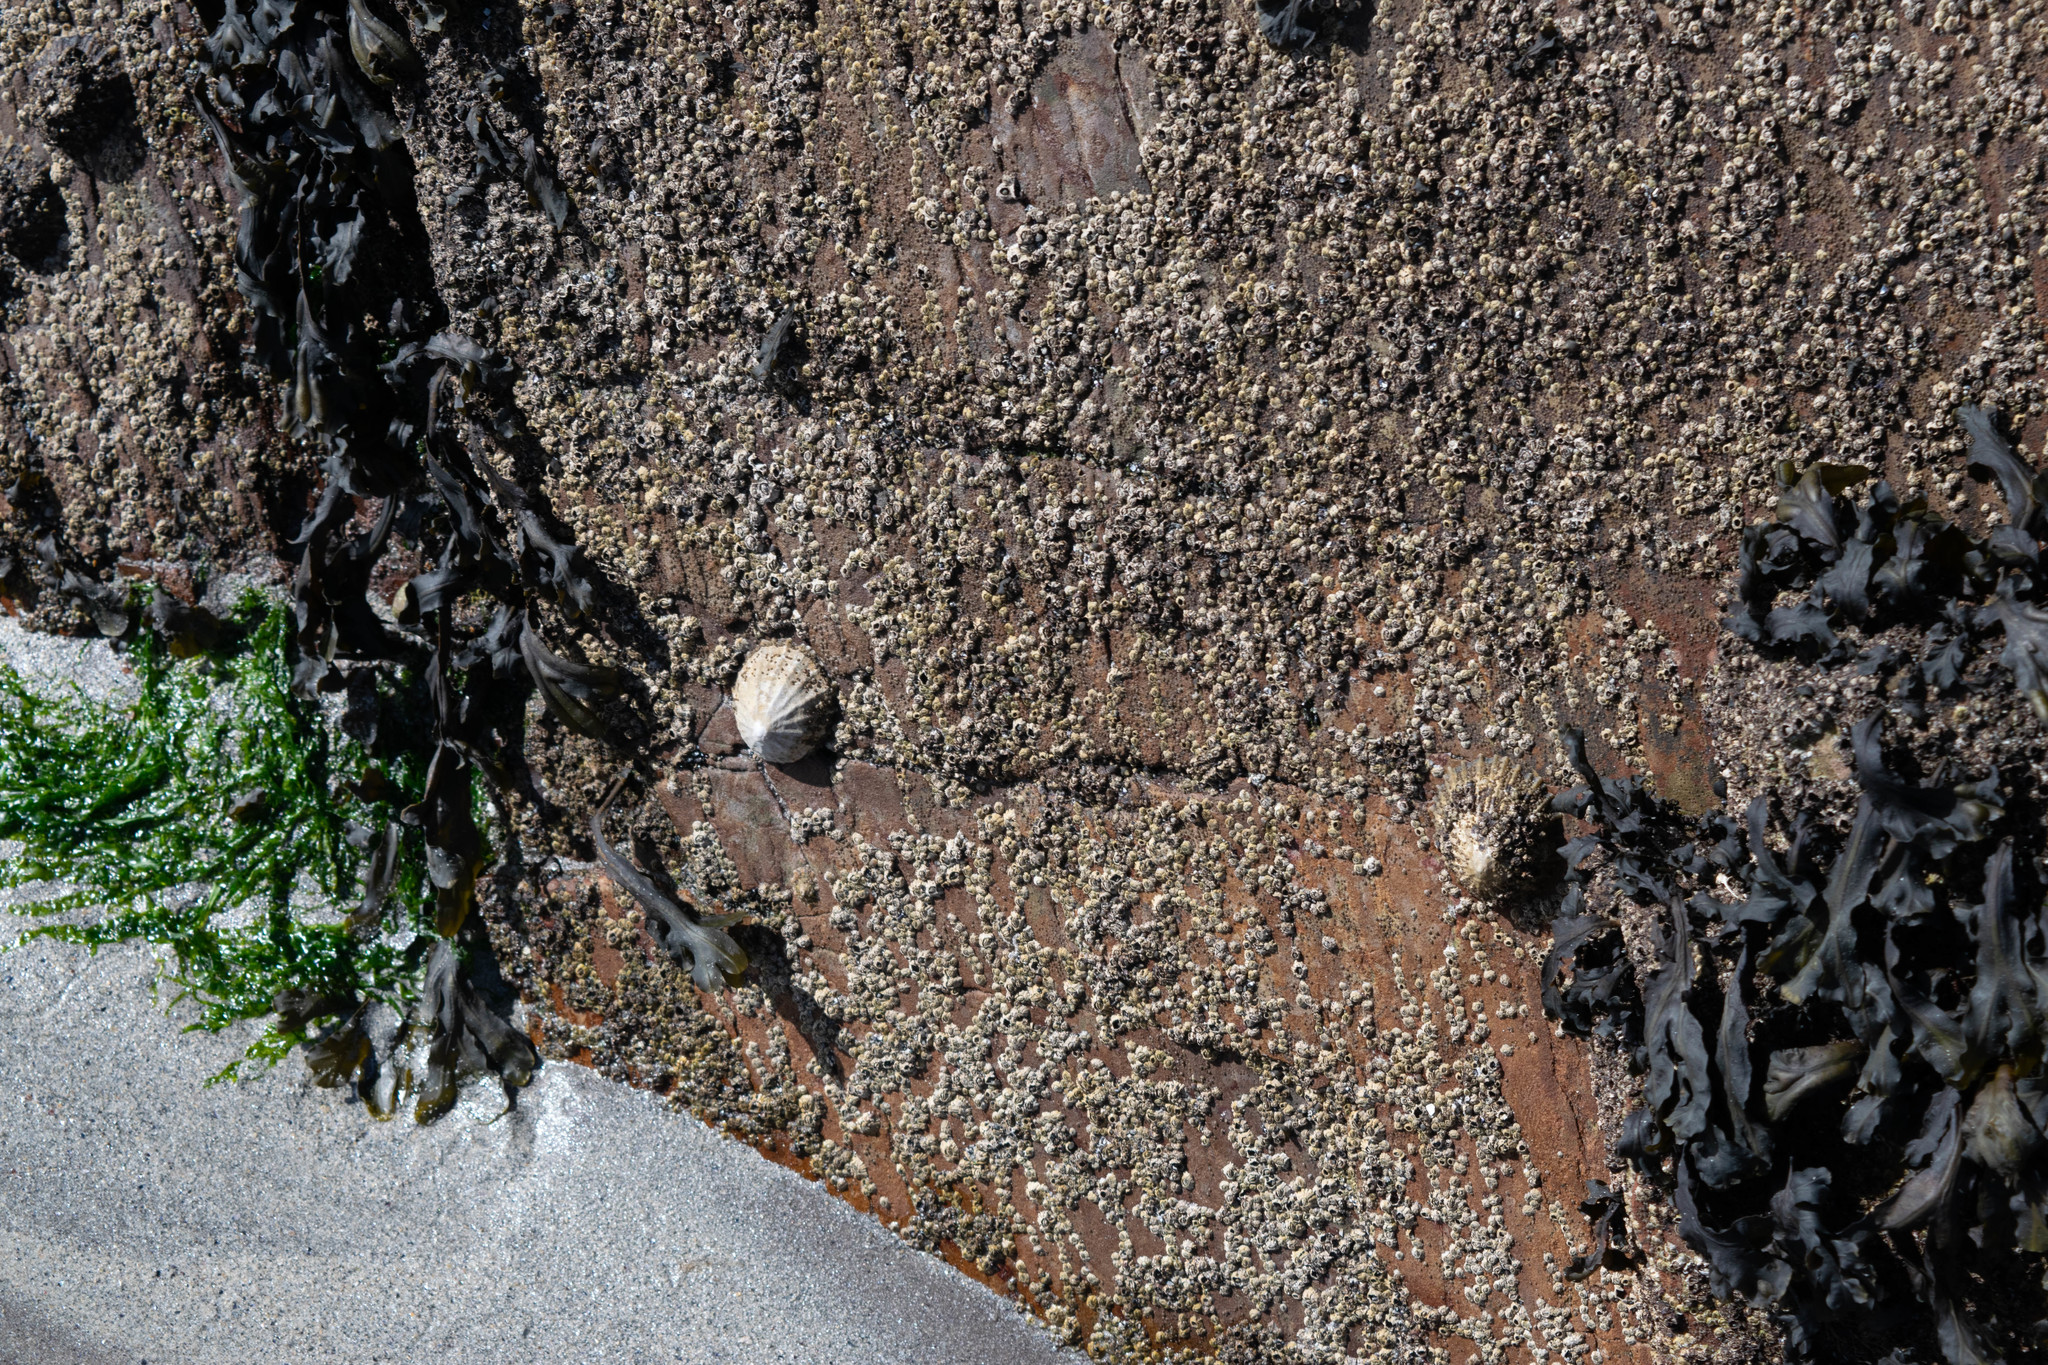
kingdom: Animalia
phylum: Mollusca
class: Gastropoda
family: Patellidae
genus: Patella
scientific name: Patella vulgata
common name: Common limpet
